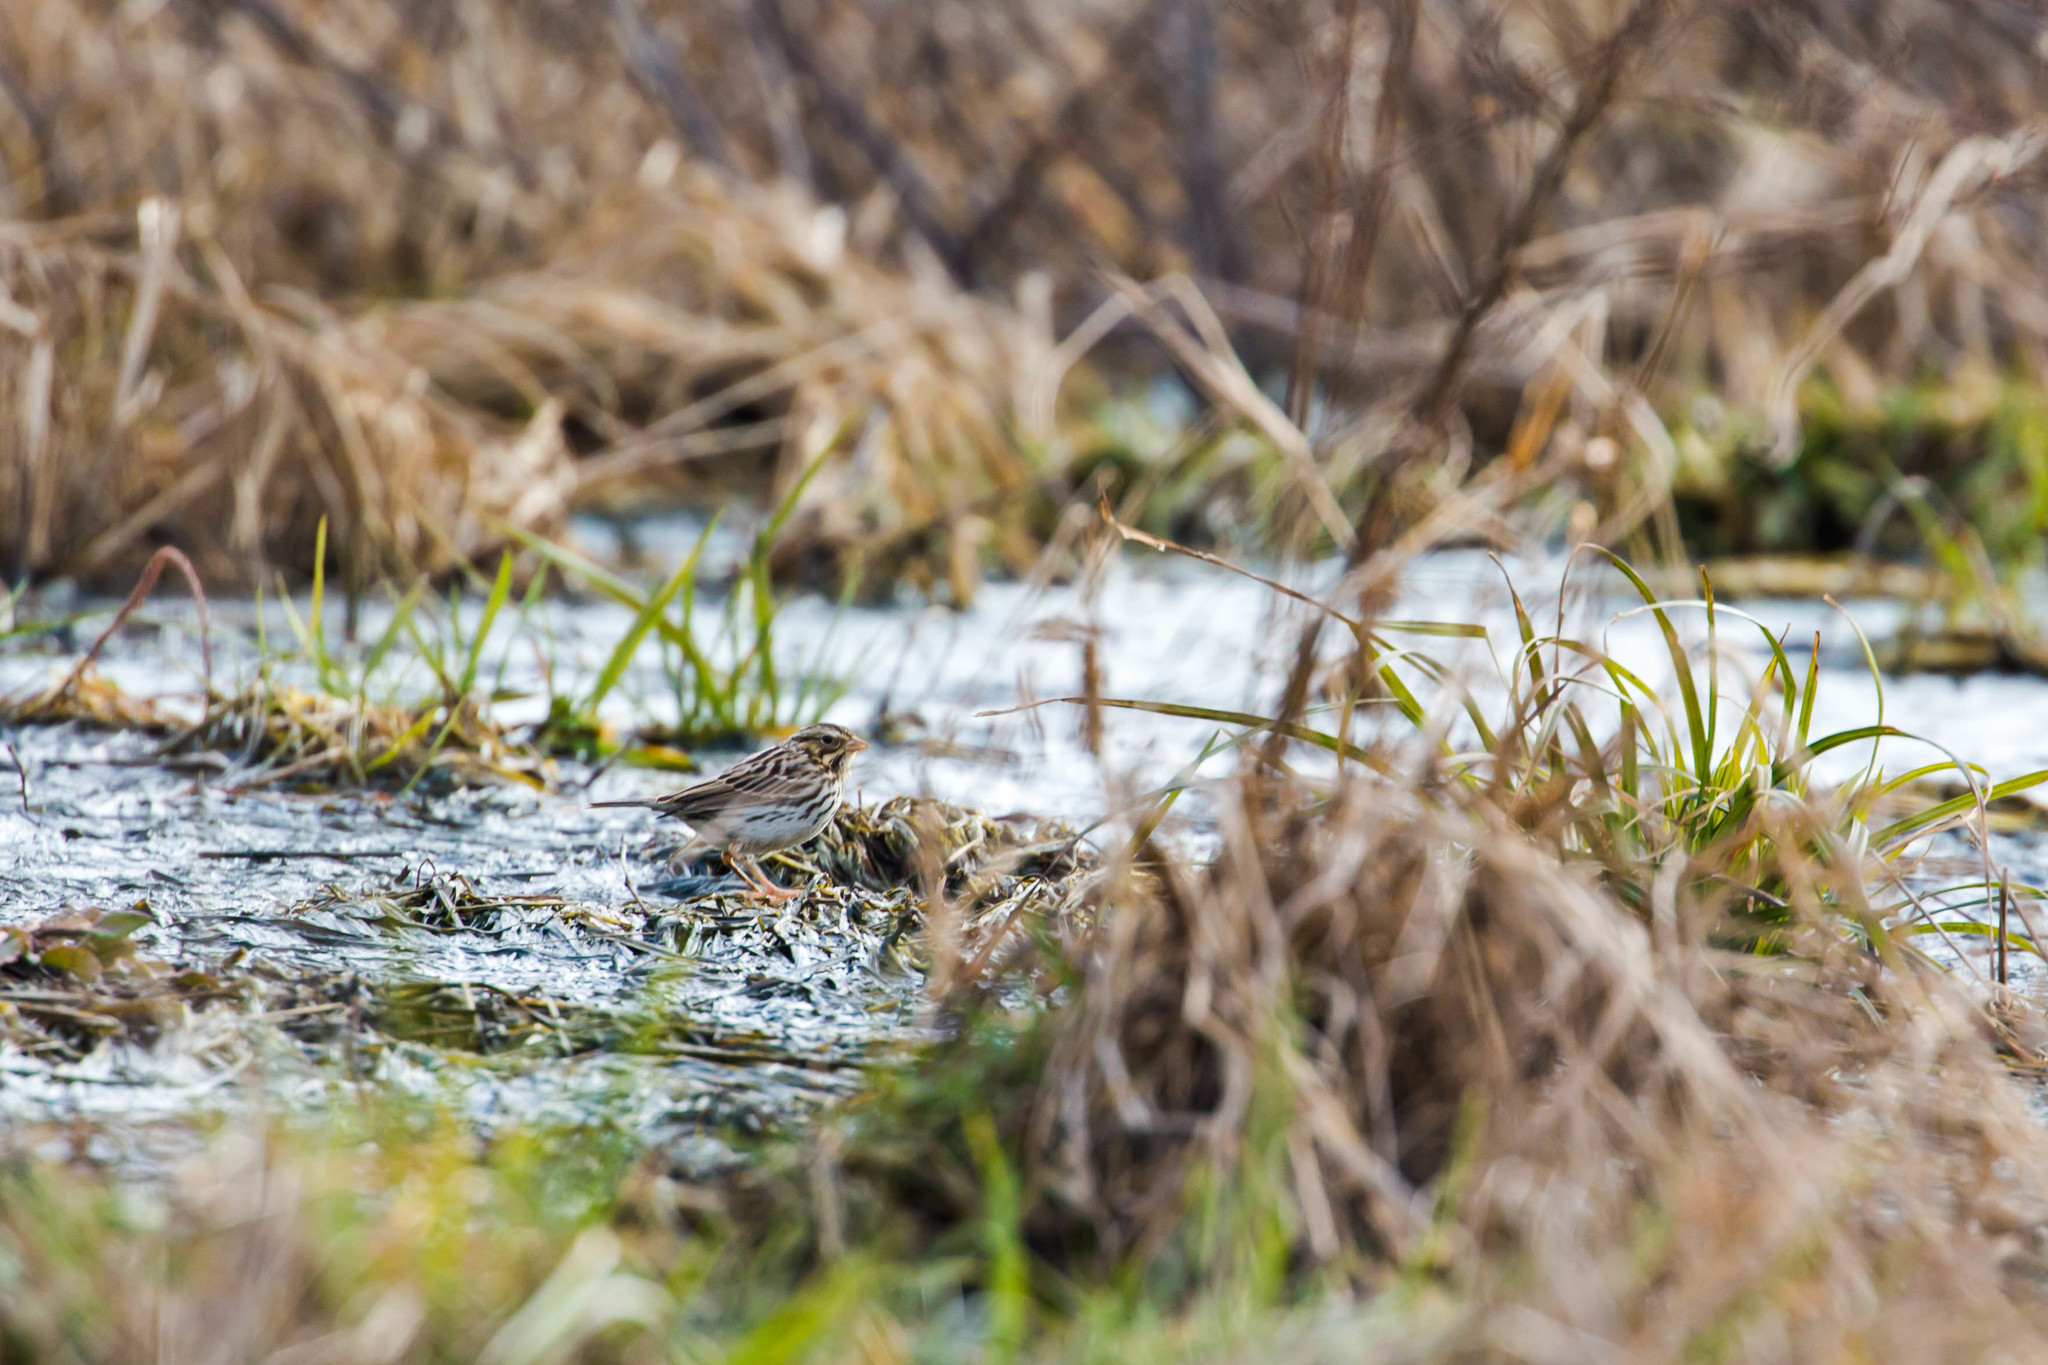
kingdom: Animalia
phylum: Chordata
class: Aves
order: Passeriformes
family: Passerellidae
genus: Passerculus
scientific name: Passerculus sandwichensis
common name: Savannah sparrow
